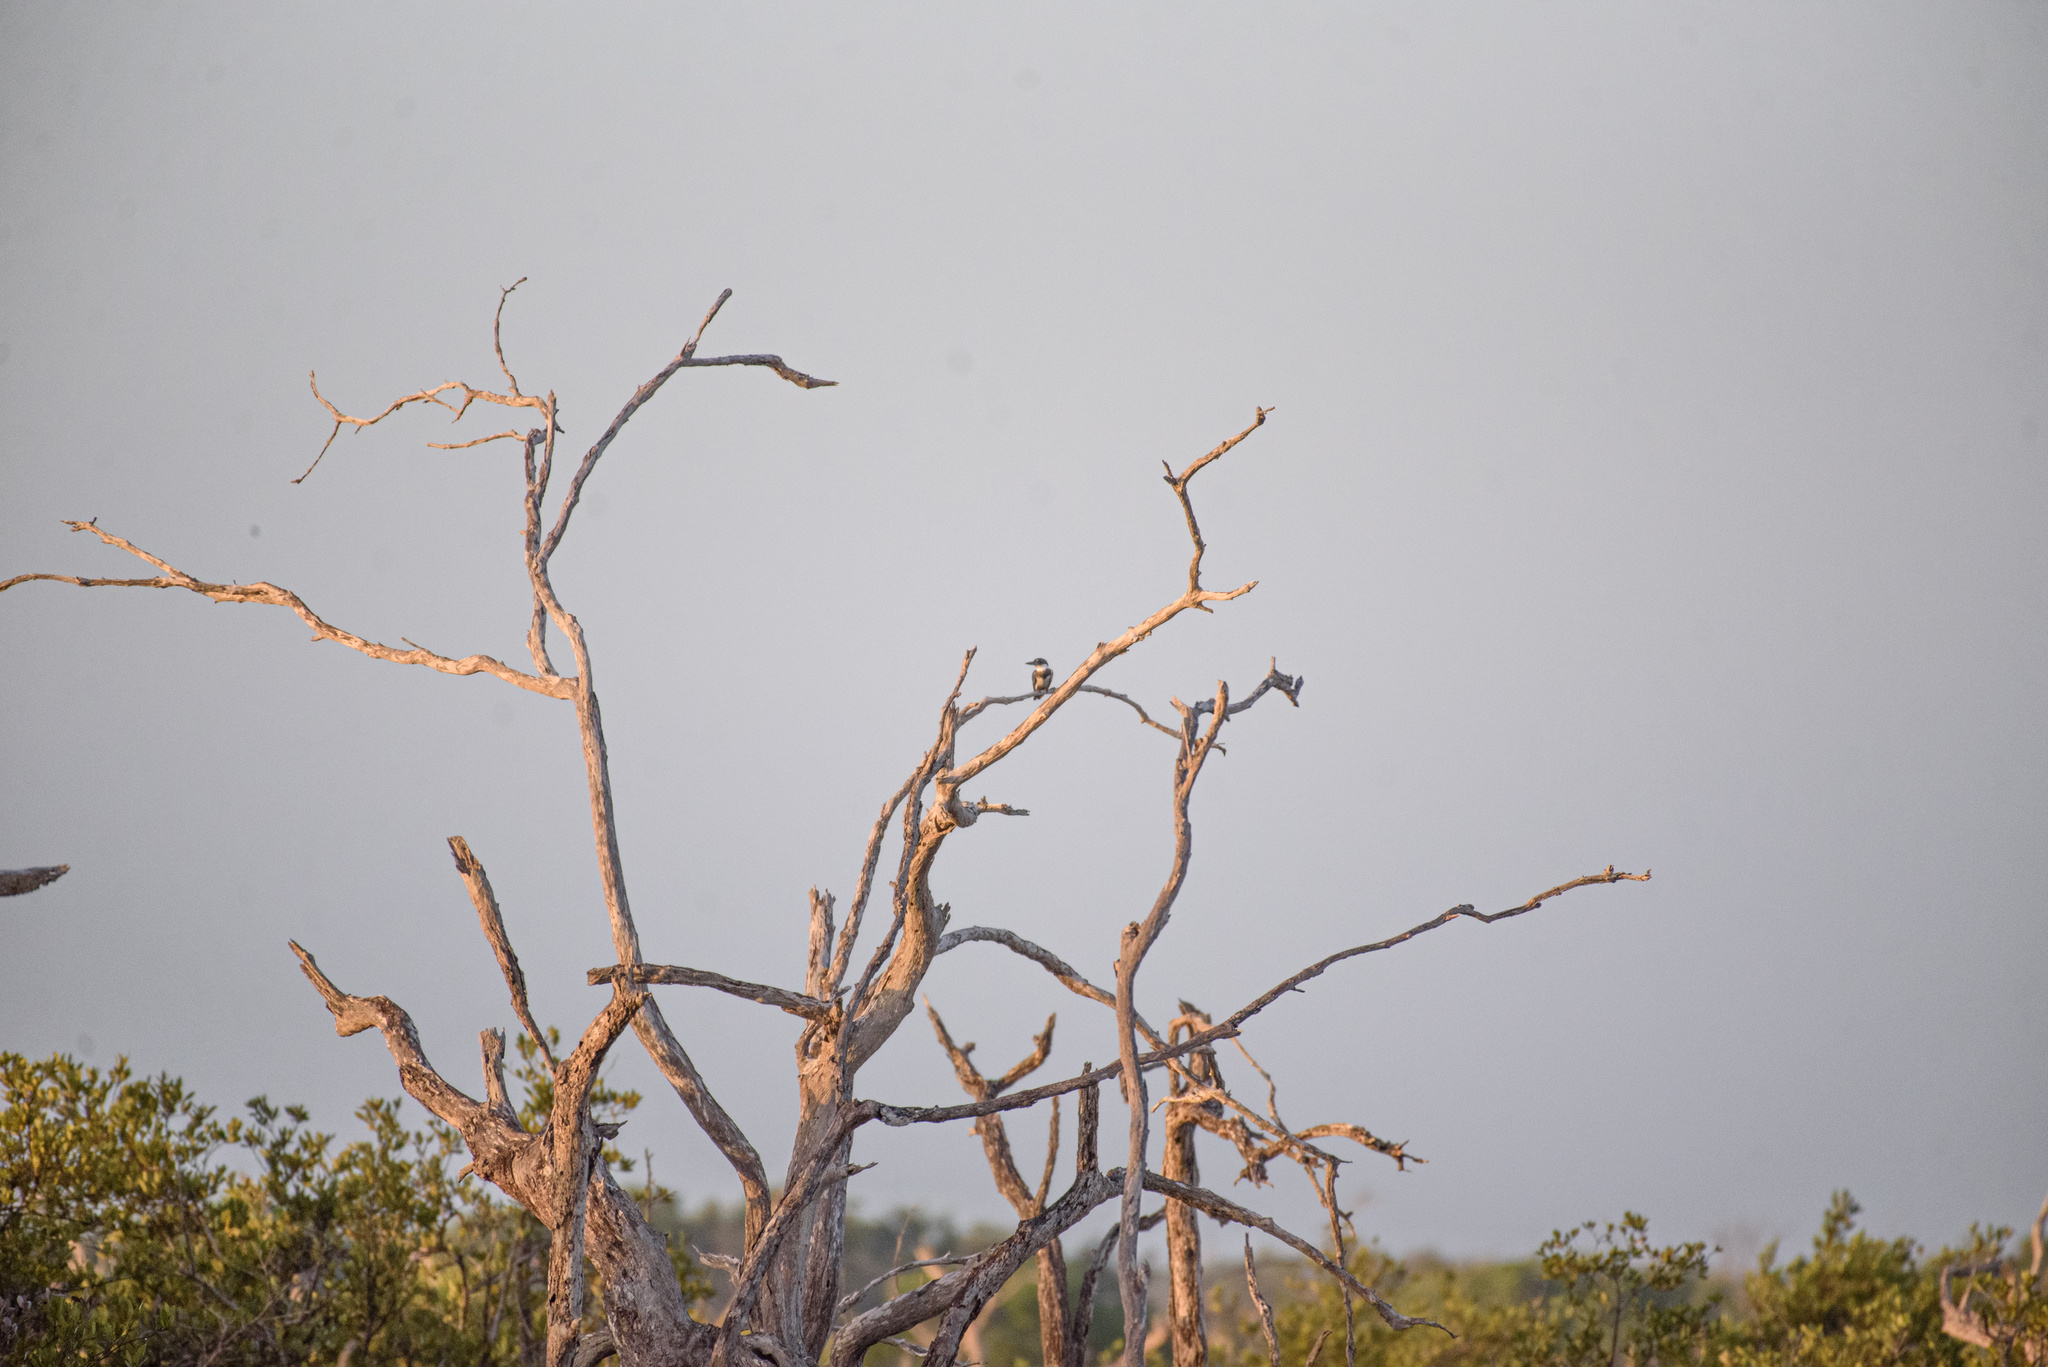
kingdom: Animalia
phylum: Chordata
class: Aves
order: Coraciiformes
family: Alcedinidae
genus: Megaceryle
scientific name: Megaceryle alcyon
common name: Belted kingfisher
